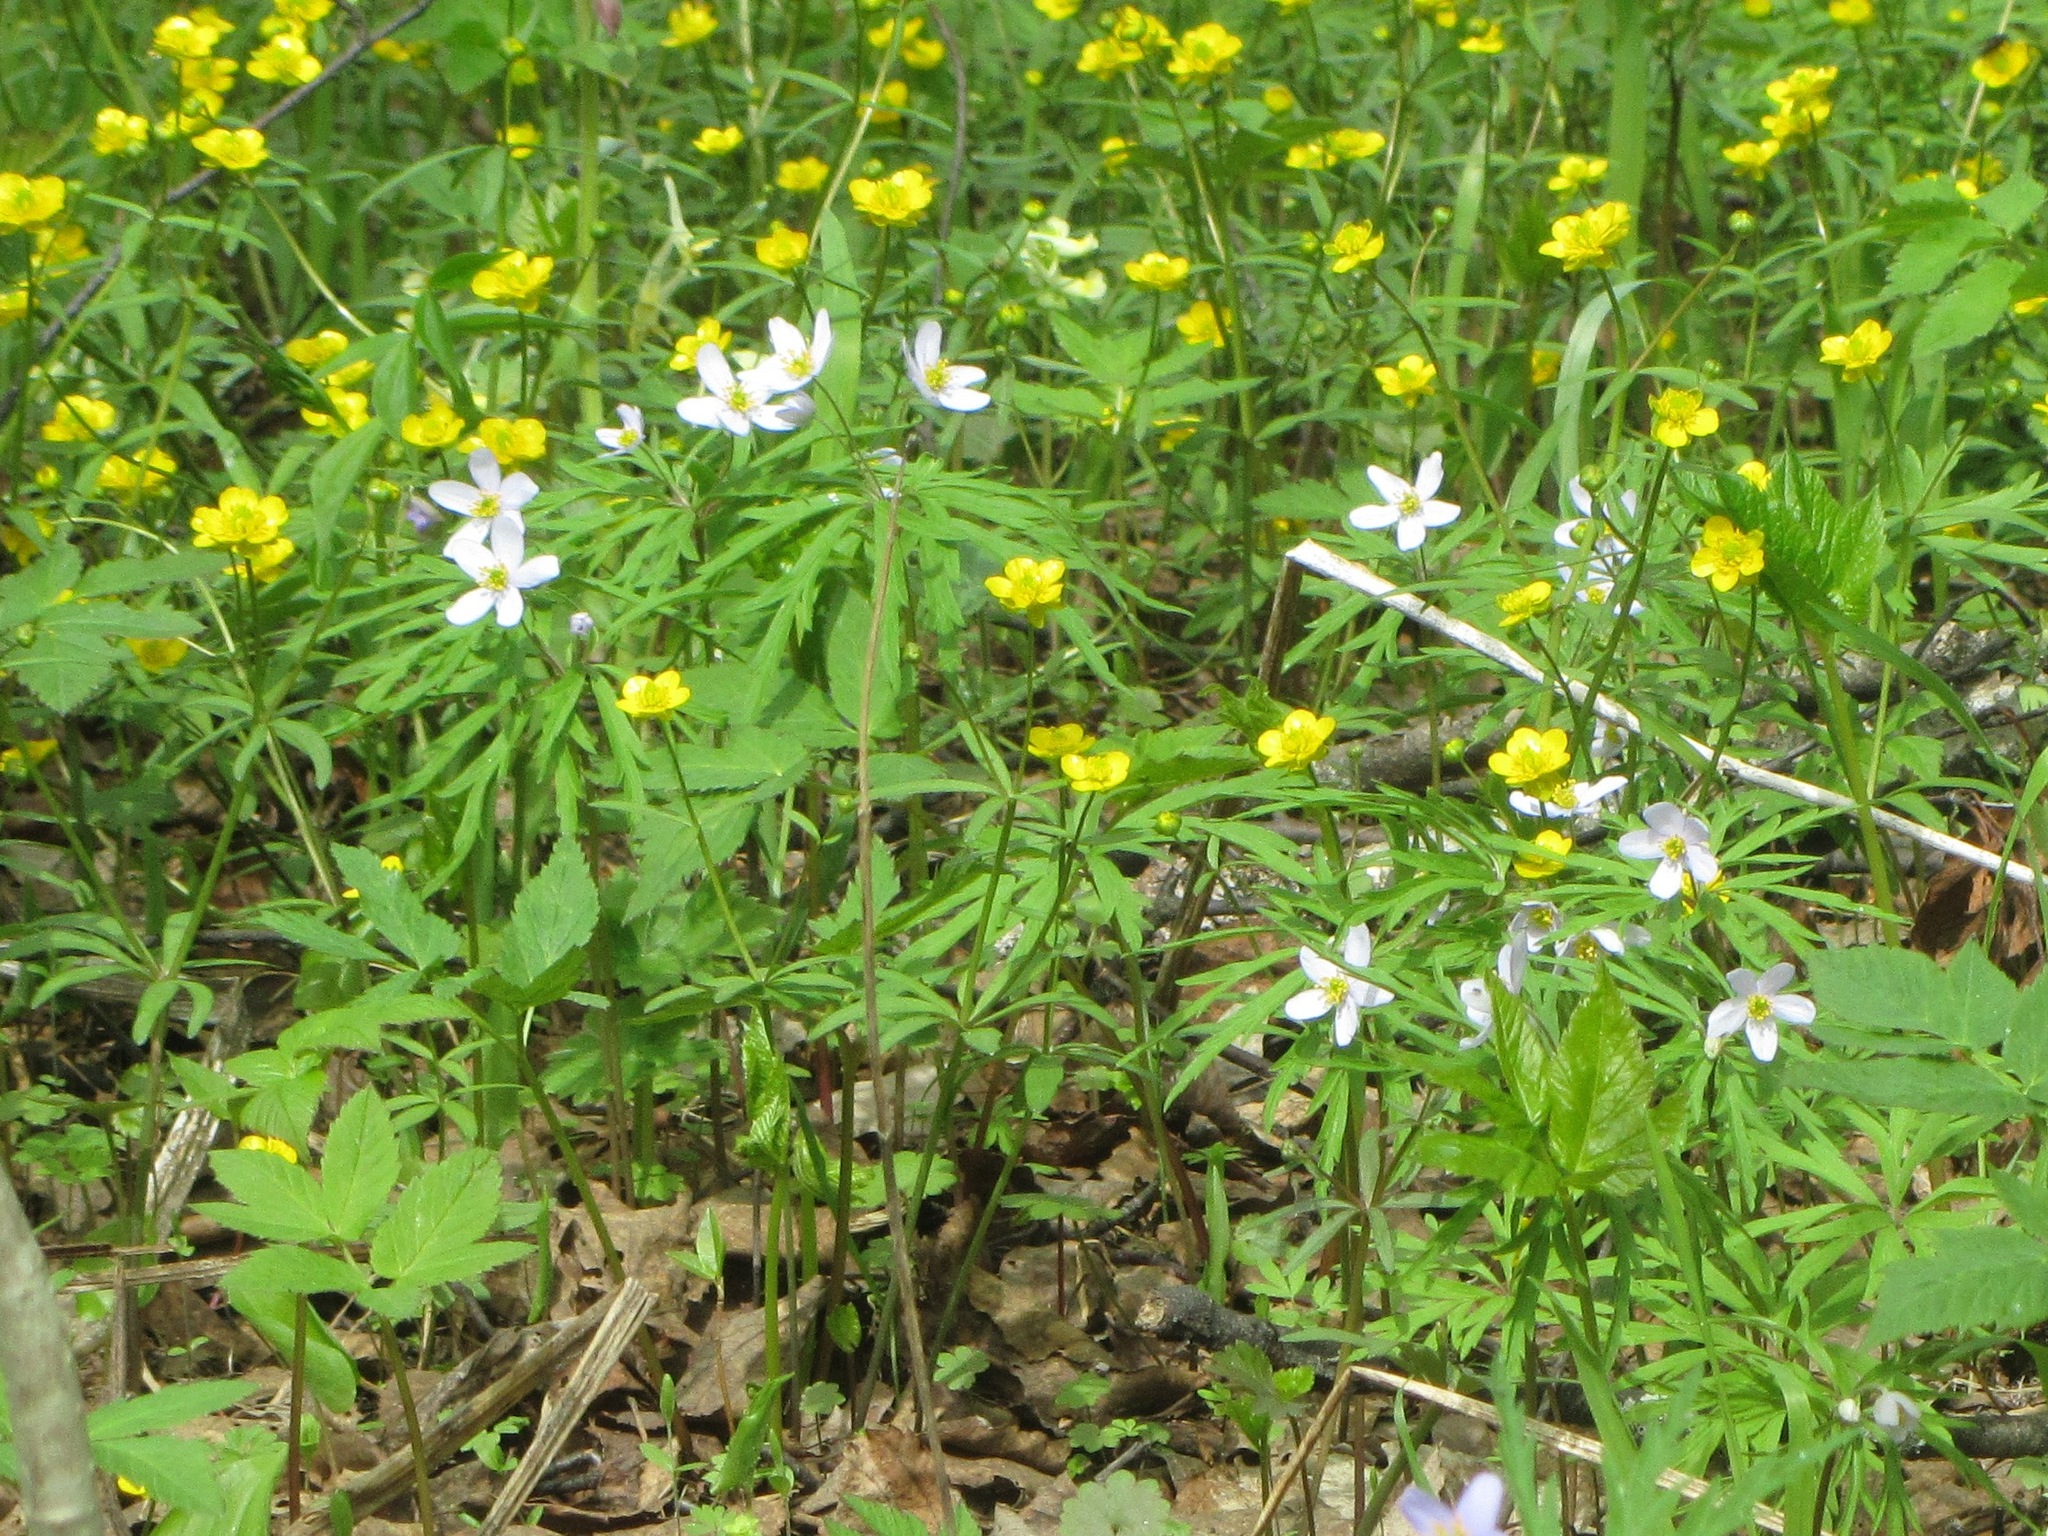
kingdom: Plantae
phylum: Tracheophyta
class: Magnoliopsida
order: Ranunculales
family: Ranunculaceae
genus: Anemone
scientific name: Anemone caerulea
